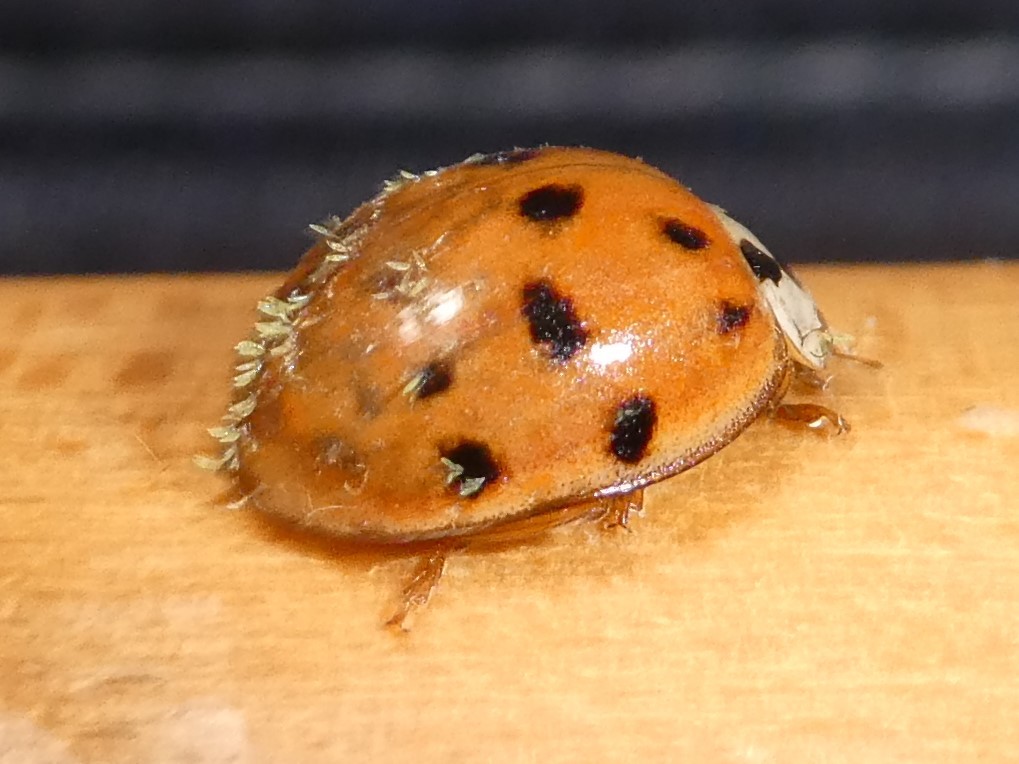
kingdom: Animalia
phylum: Arthropoda
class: Insecta
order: Coleoptera
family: Coccinellidae
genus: Harmonia
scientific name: Harmonia axyridis
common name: Harlequin ladybird
